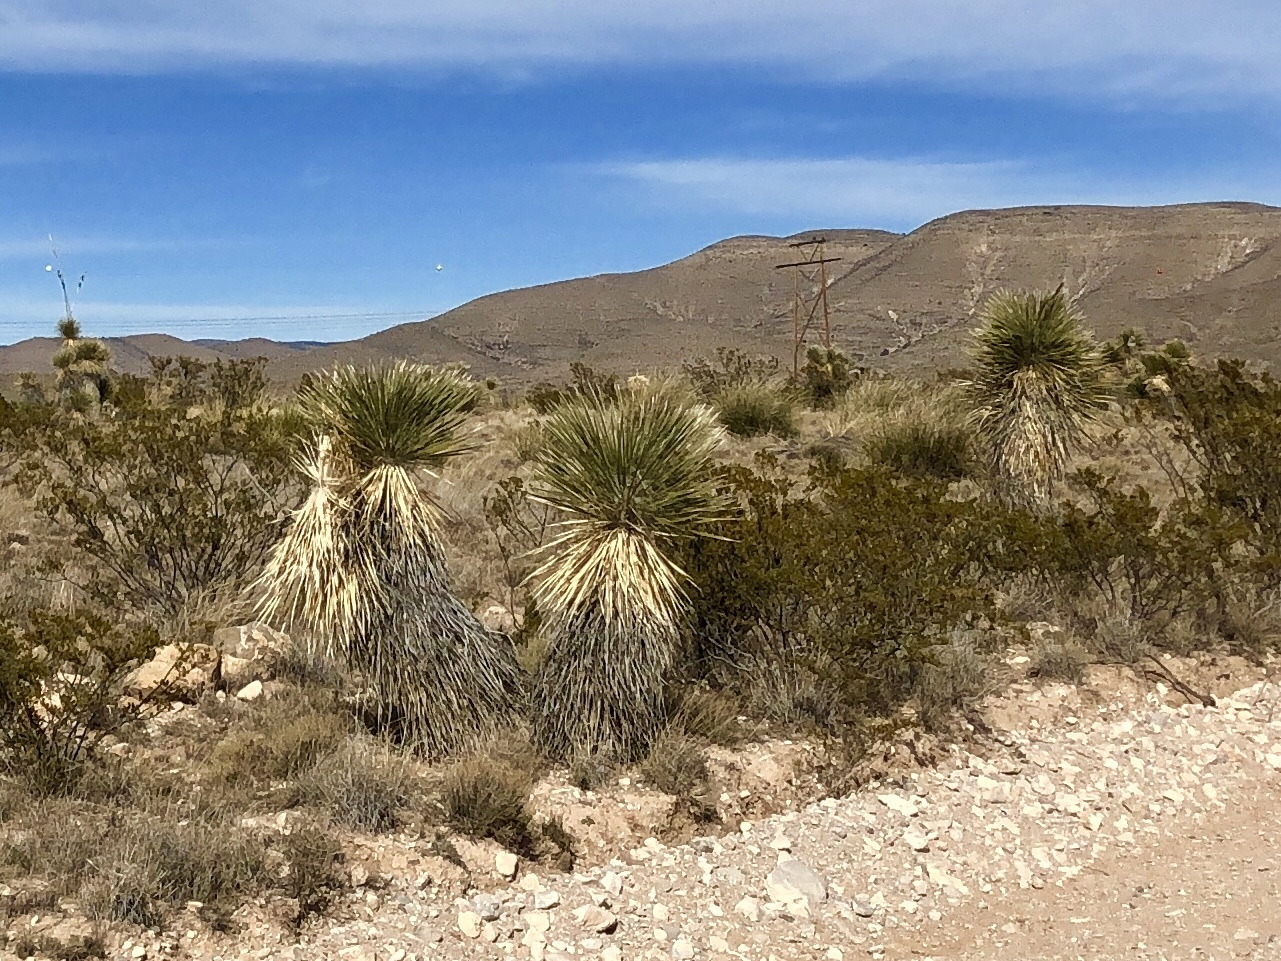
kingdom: Plantae
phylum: Tracheophyta
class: Liliopsida
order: Asparagales
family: Asparagaceae
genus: Yucca
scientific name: Yucca elata
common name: Palmella
